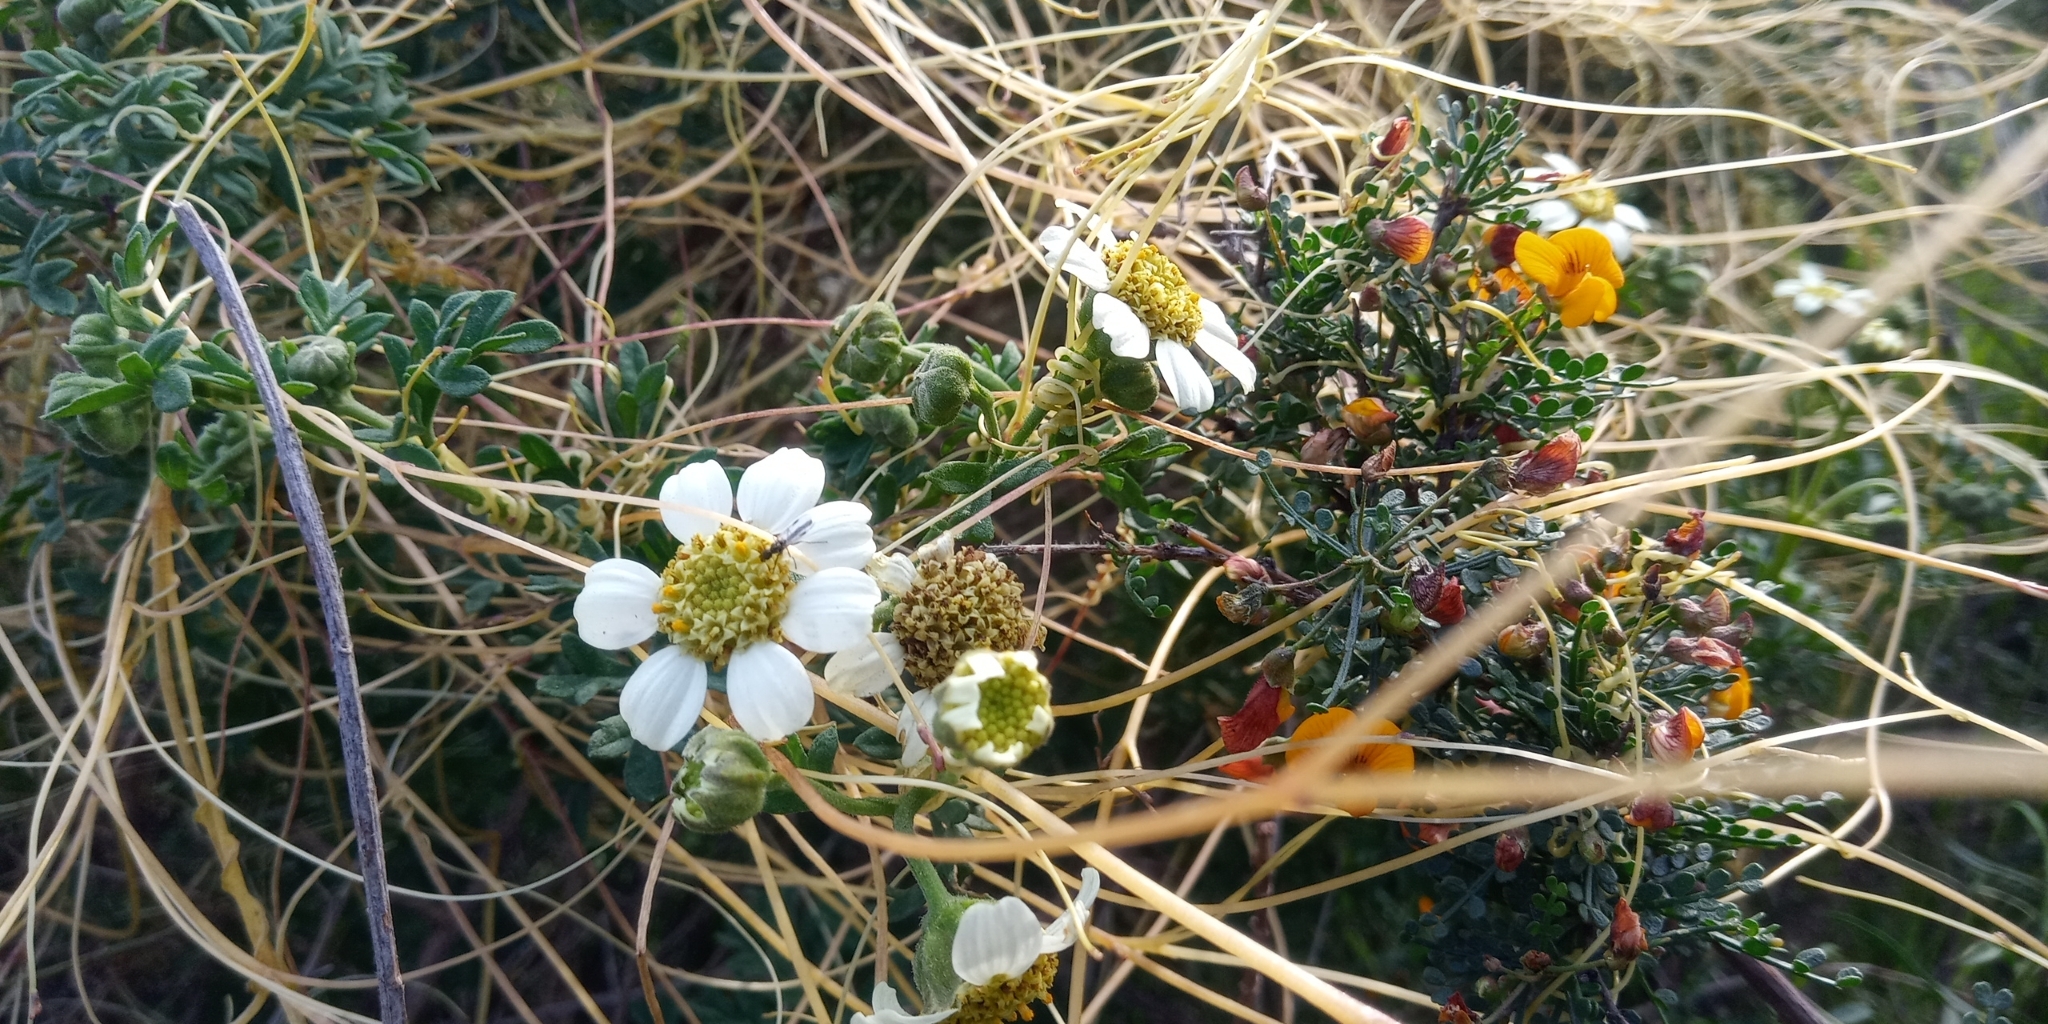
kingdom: Plantae
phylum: Tracheophyta
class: Magnoliopsida
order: Asterales
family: Asteraceae
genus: Bahia
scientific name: Bahia ambrosioides
